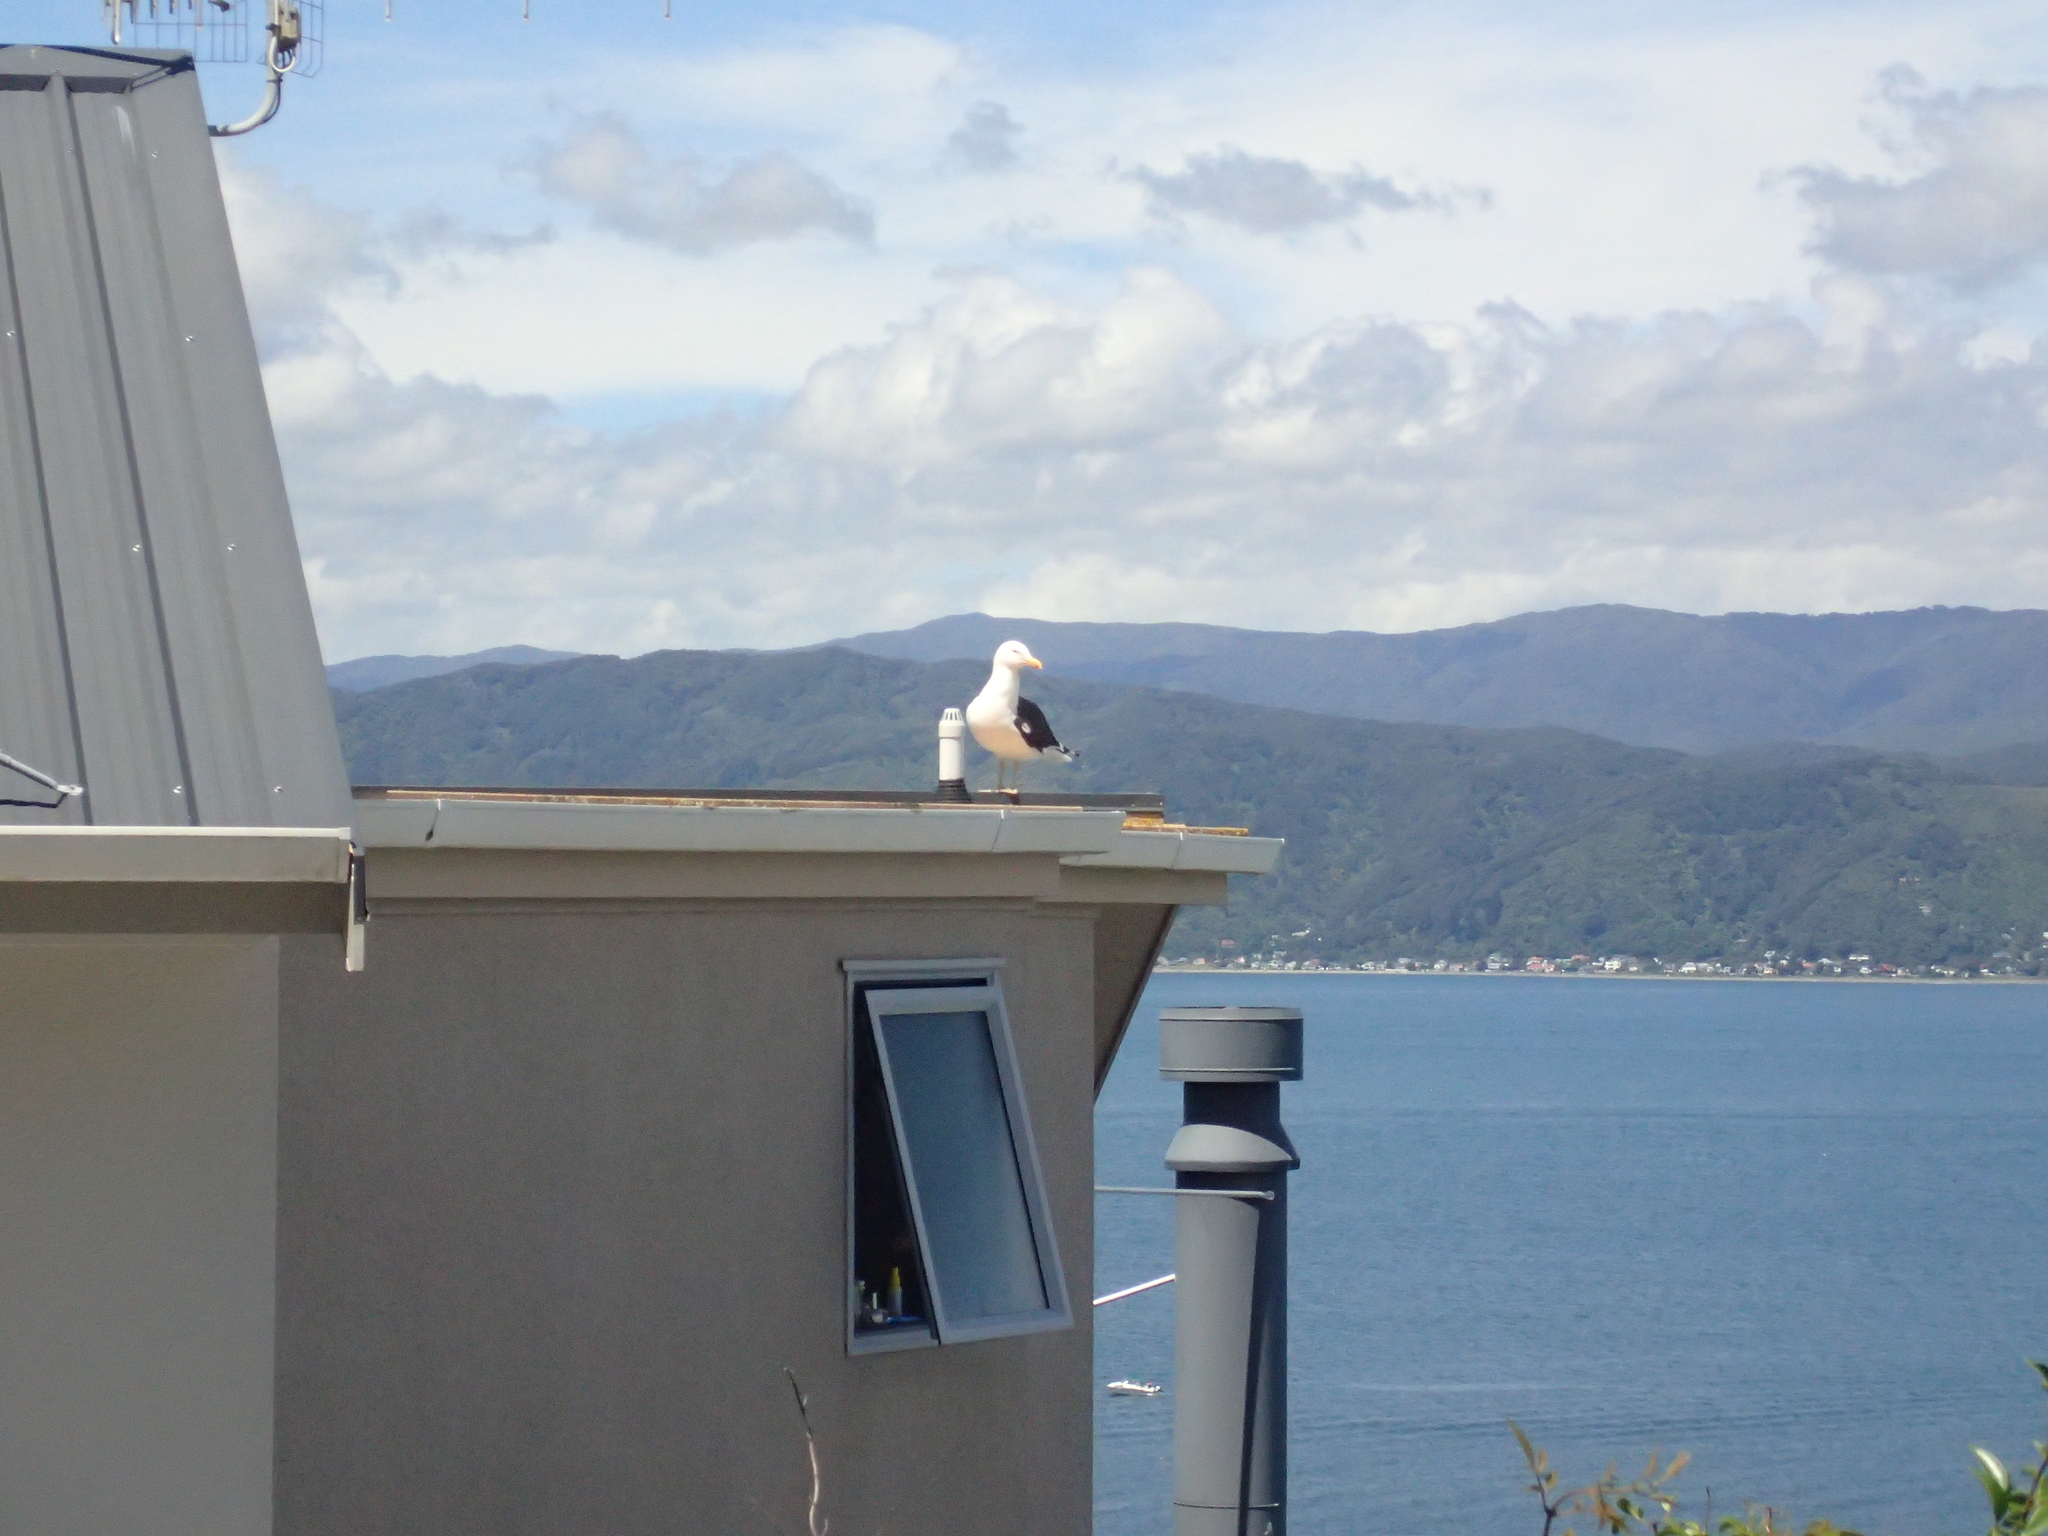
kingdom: Animalia
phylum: Chordata
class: Aves
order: Charadriiformes
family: Laridae
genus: Larus
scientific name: Larus dominicanus
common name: Kelp gull
